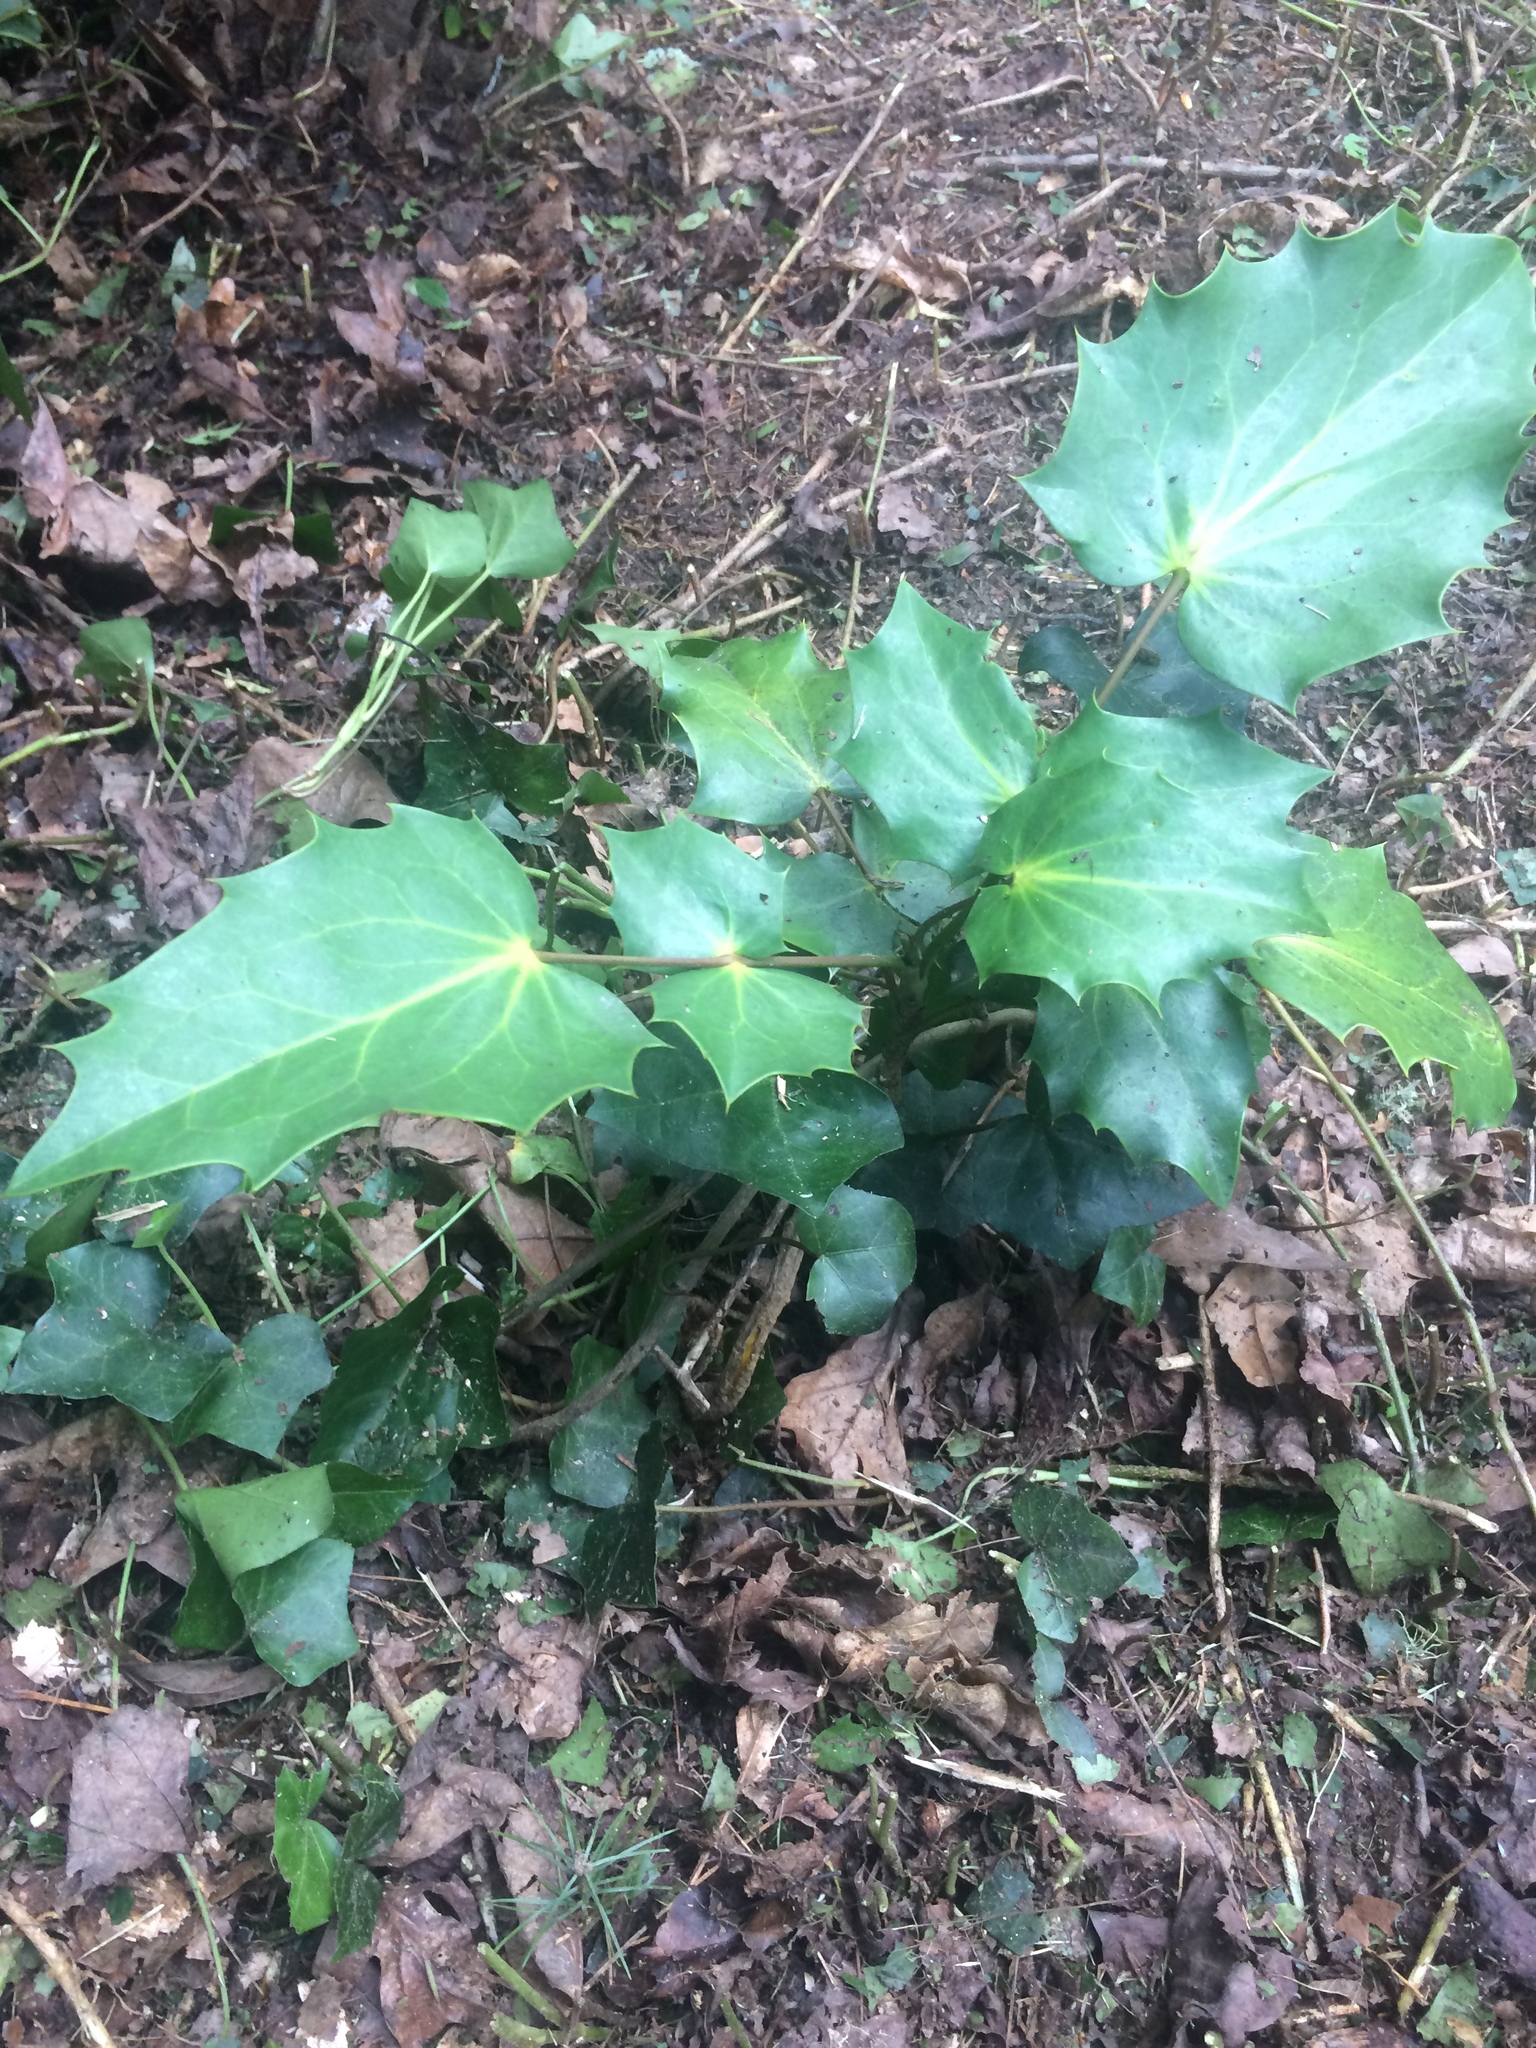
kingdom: Plantae
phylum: Tracheophyta
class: Magnoliopsida
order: Ranunculales
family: Berberidaceae
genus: Mahonia
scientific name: Mahonia bealei
